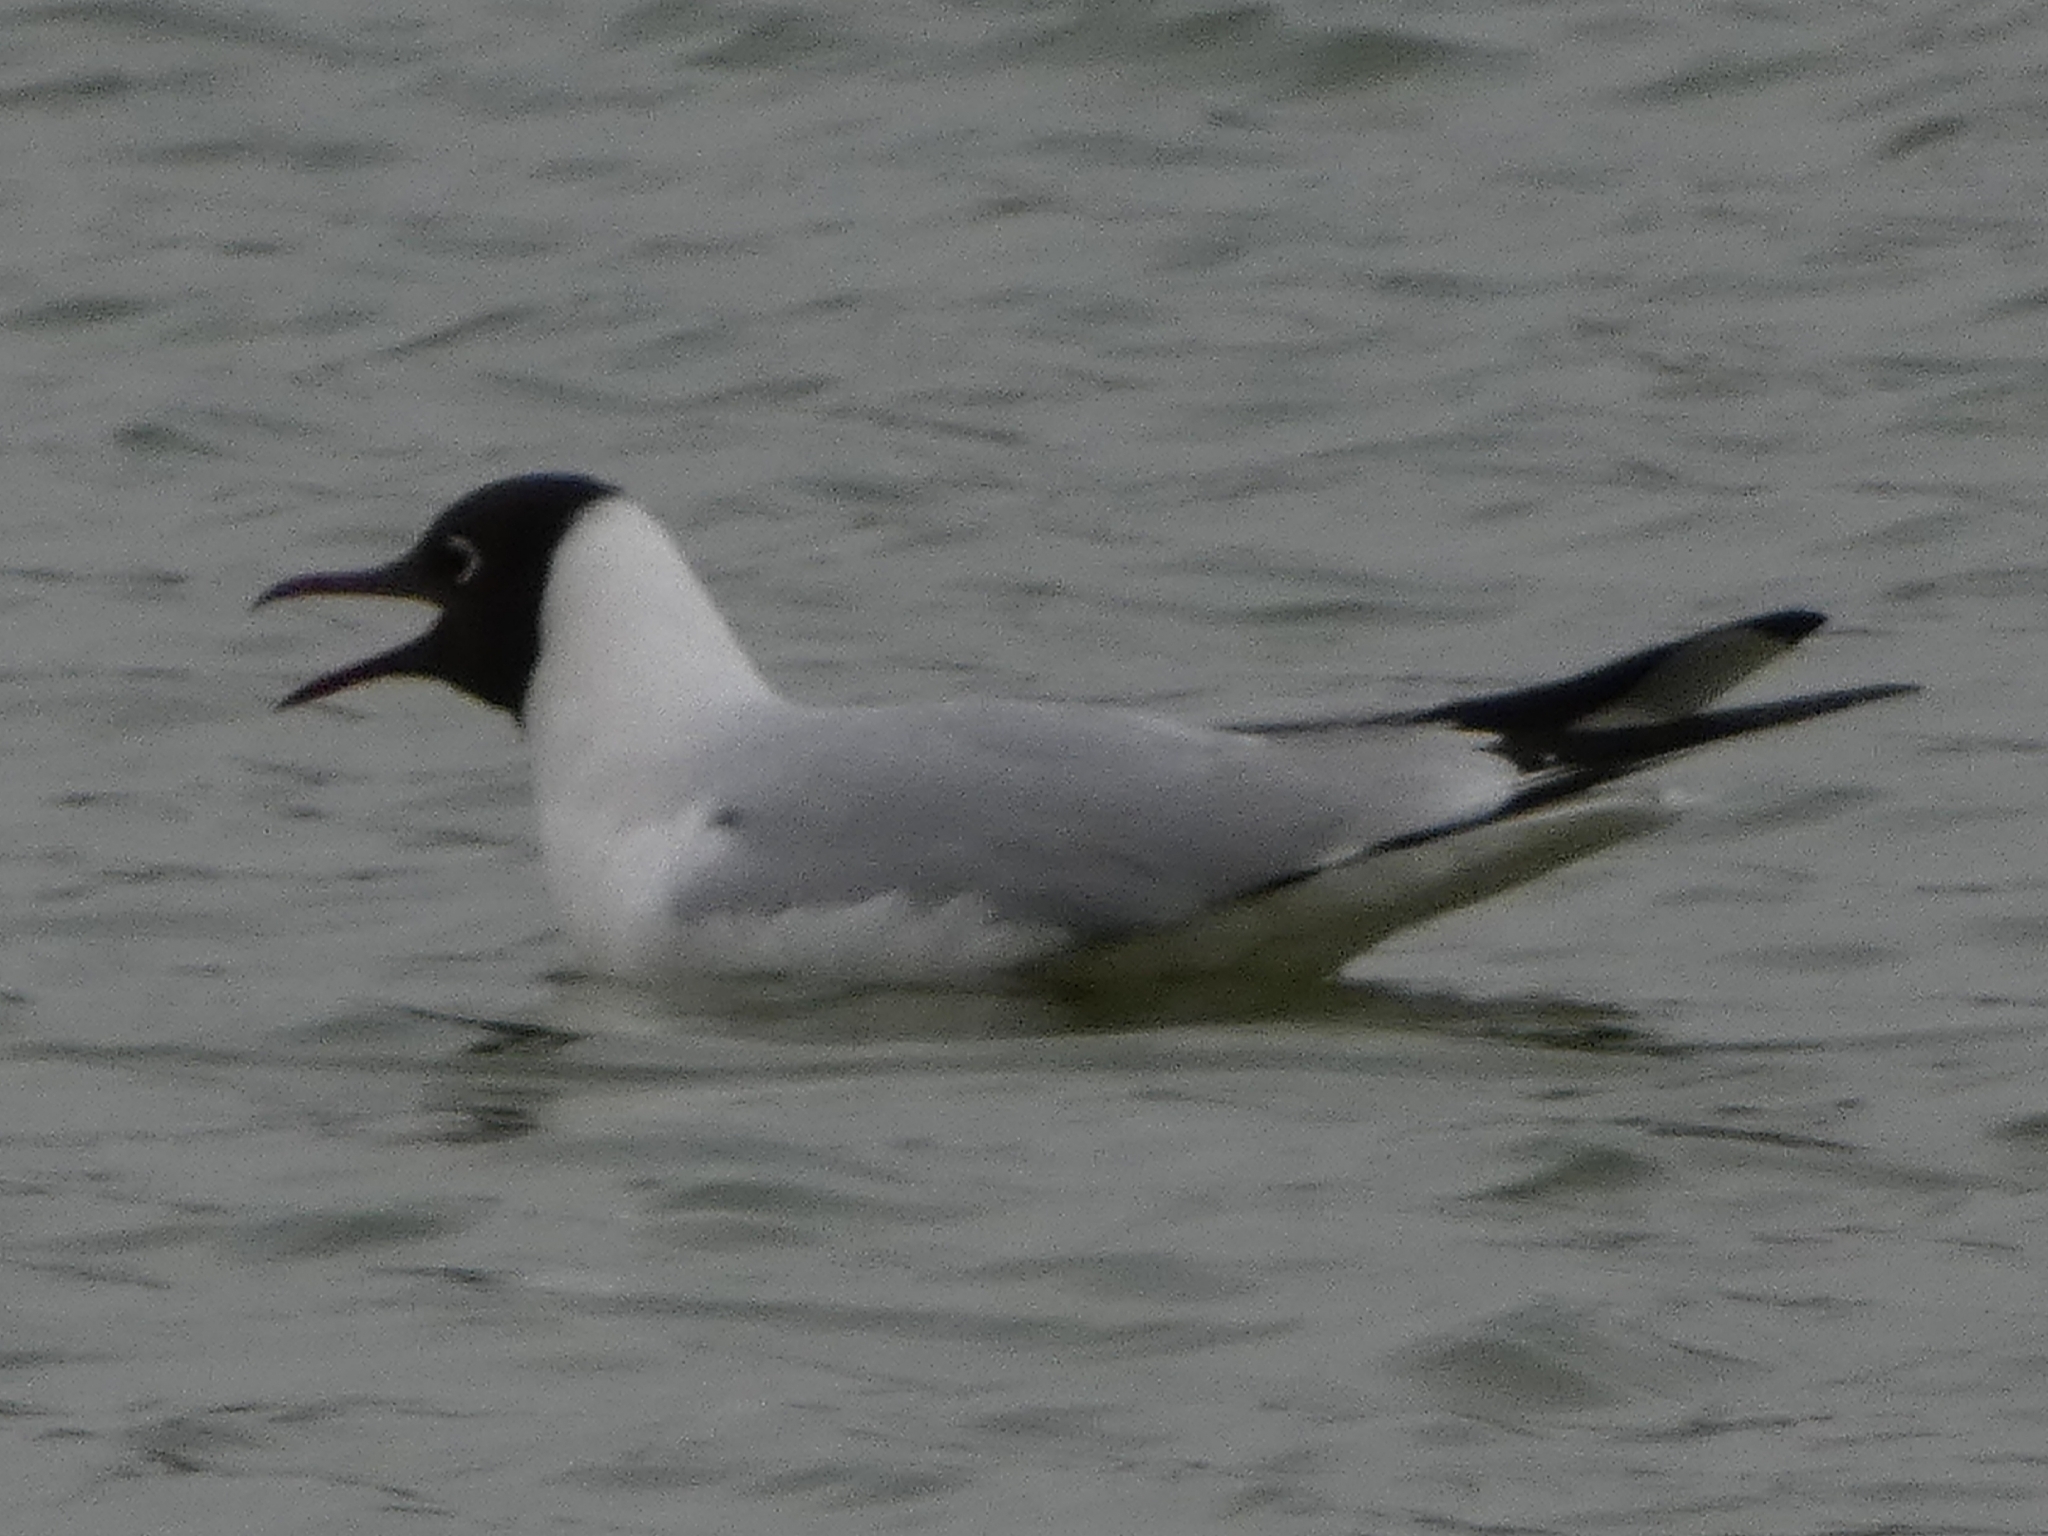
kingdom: Animalia
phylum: Chordata
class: Aves
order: Charadriiformes
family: Laridae
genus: Chroicocephalus
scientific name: Chroicocephalus ridibundus
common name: Black-headed gull
